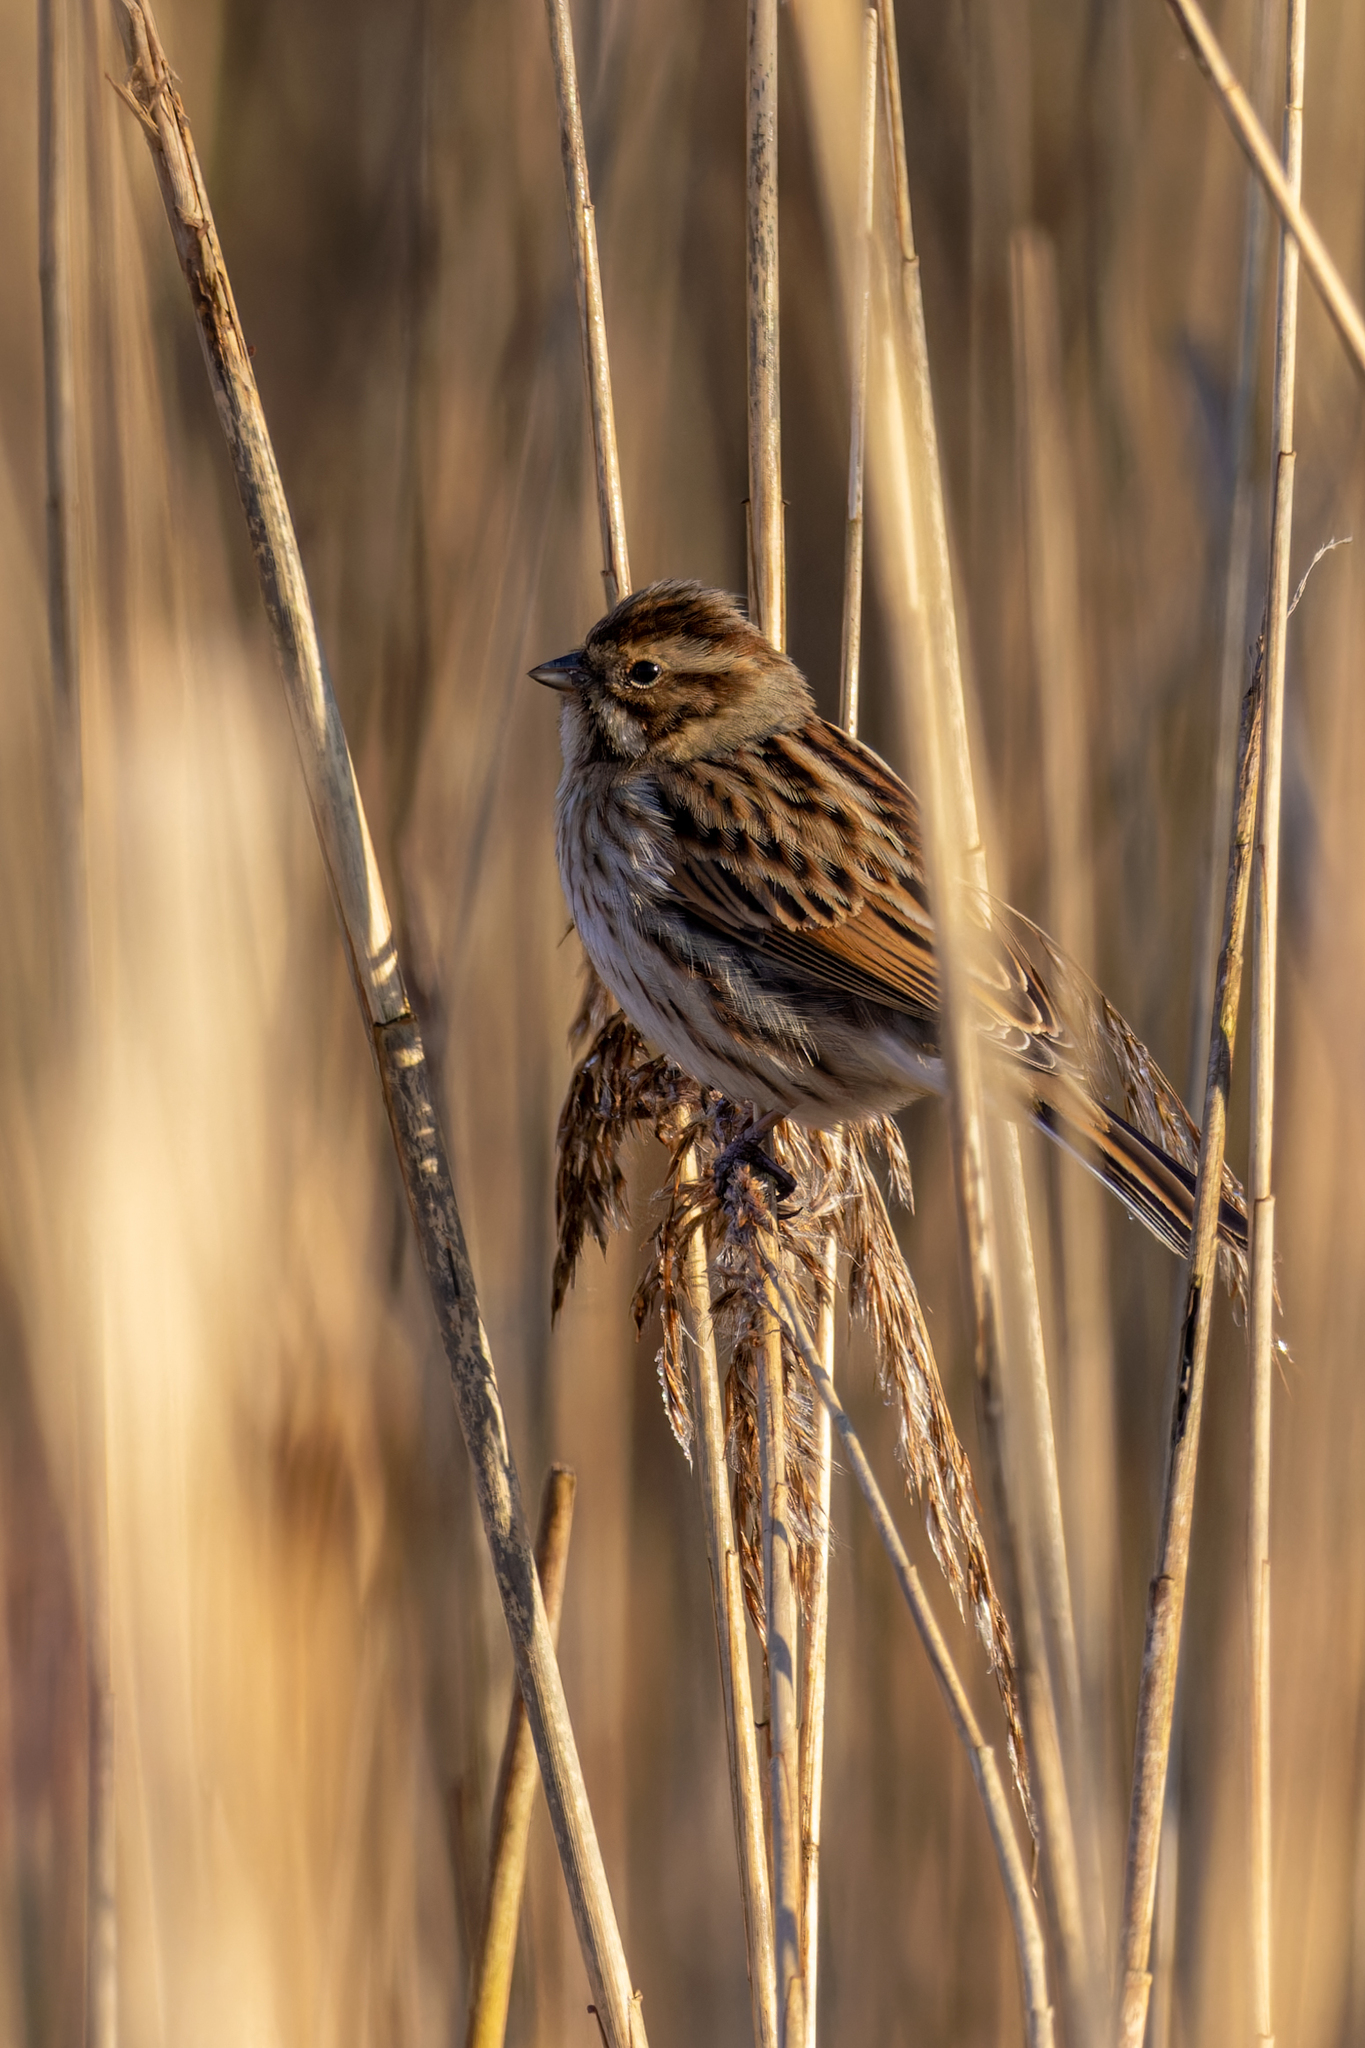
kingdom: Animalia
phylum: Chordata
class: Aves
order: Passeriformes
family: Emberizidae
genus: Emberiza
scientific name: Emberiza schoeniclus
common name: Reed bunting
